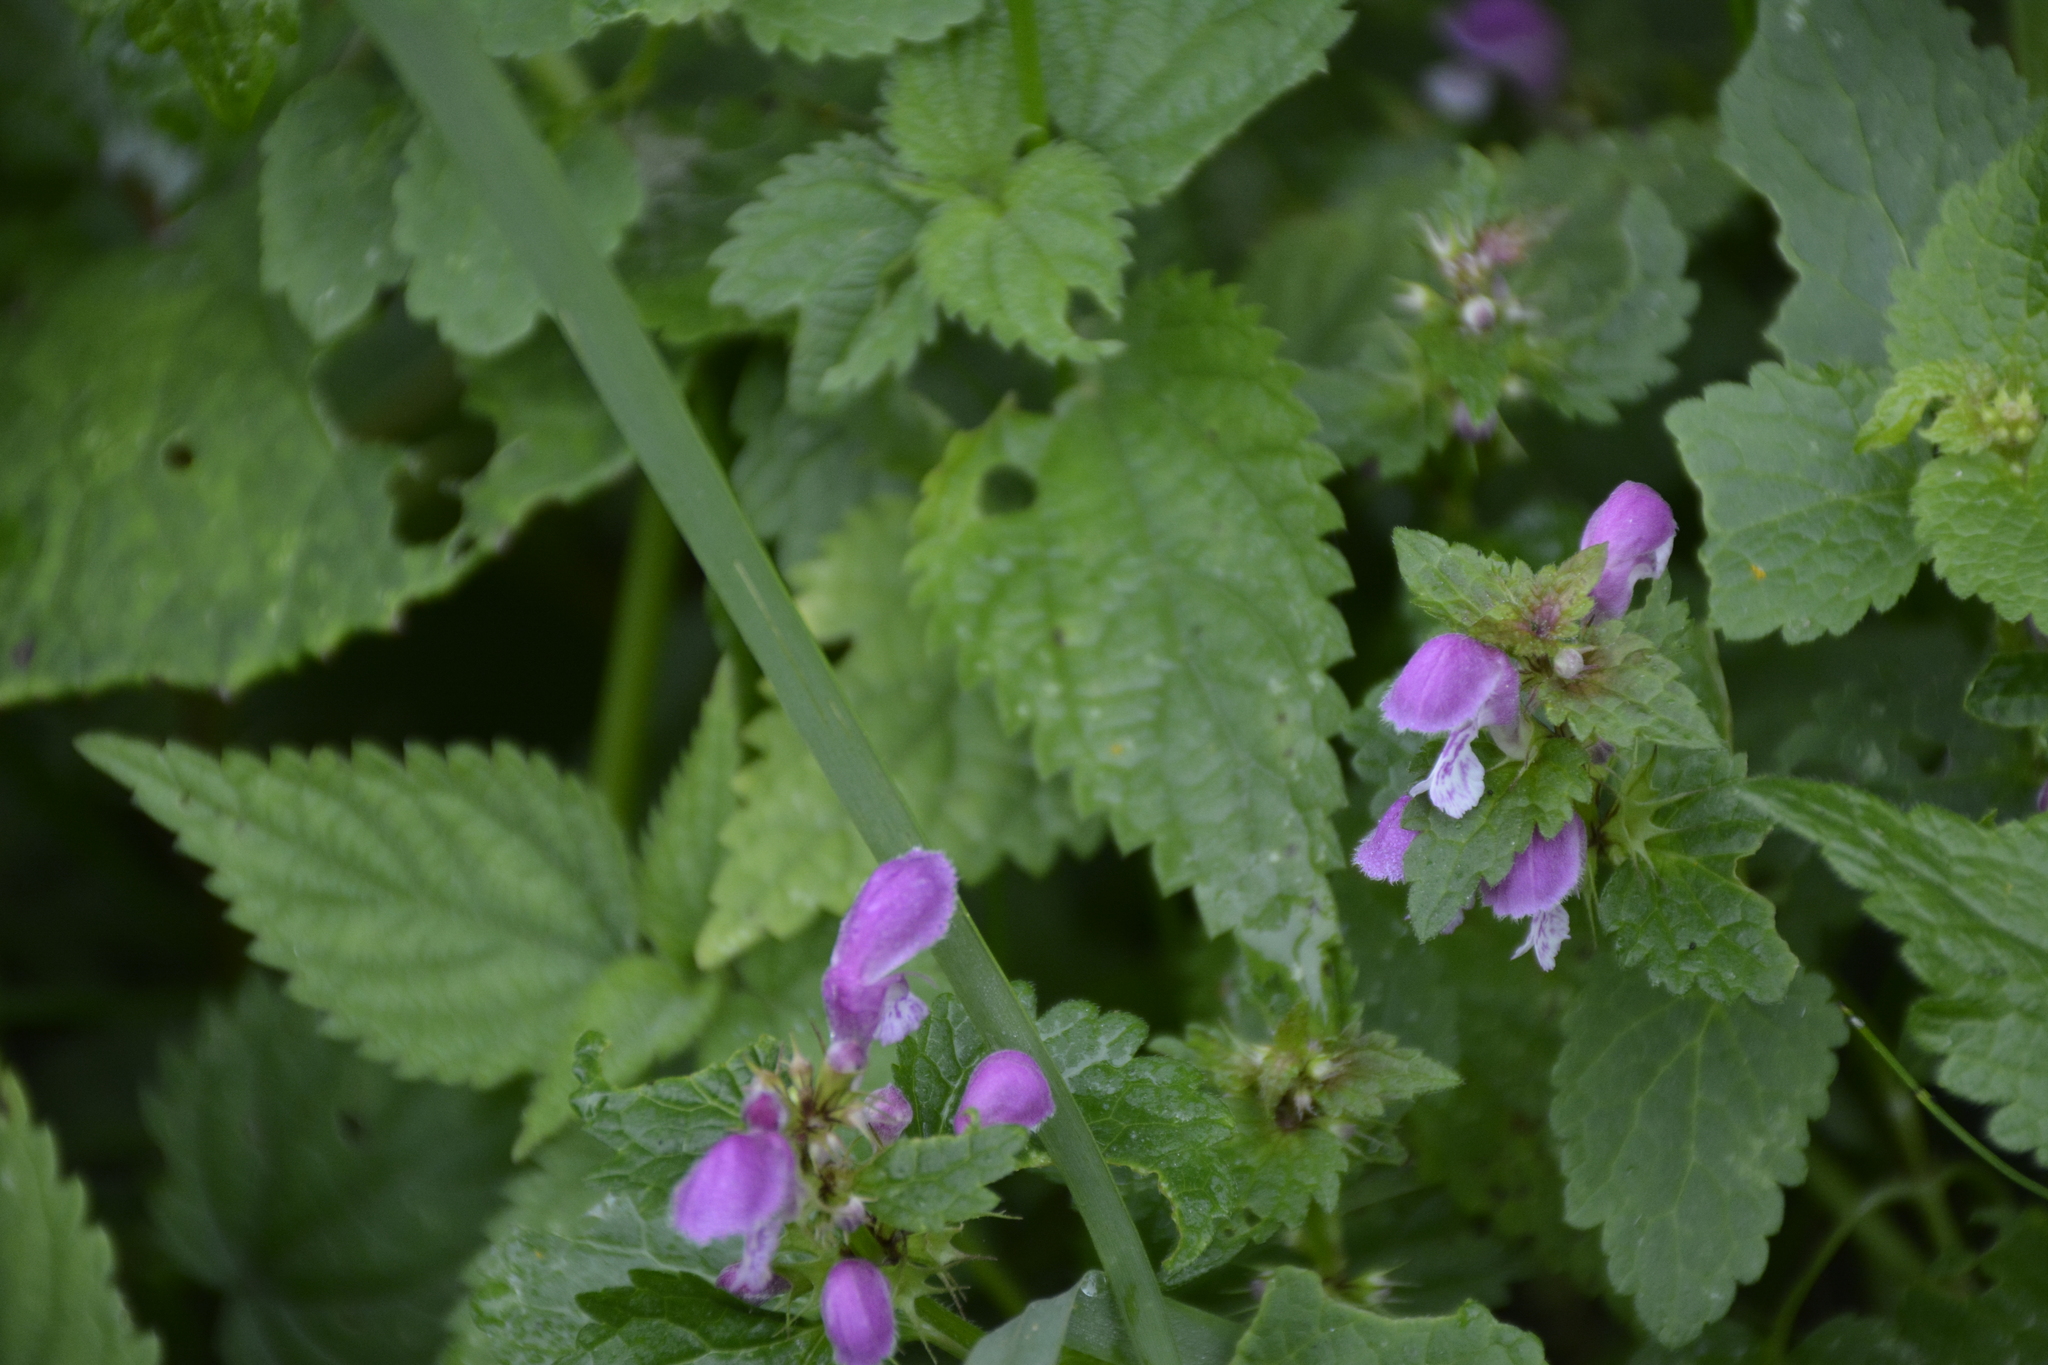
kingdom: Plantae
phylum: Tracheophyta
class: Magnoliopsida
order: Lamiales
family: Lamiaceae
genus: Lamium
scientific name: Lamium maculatum
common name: Spotted dead-nettle
